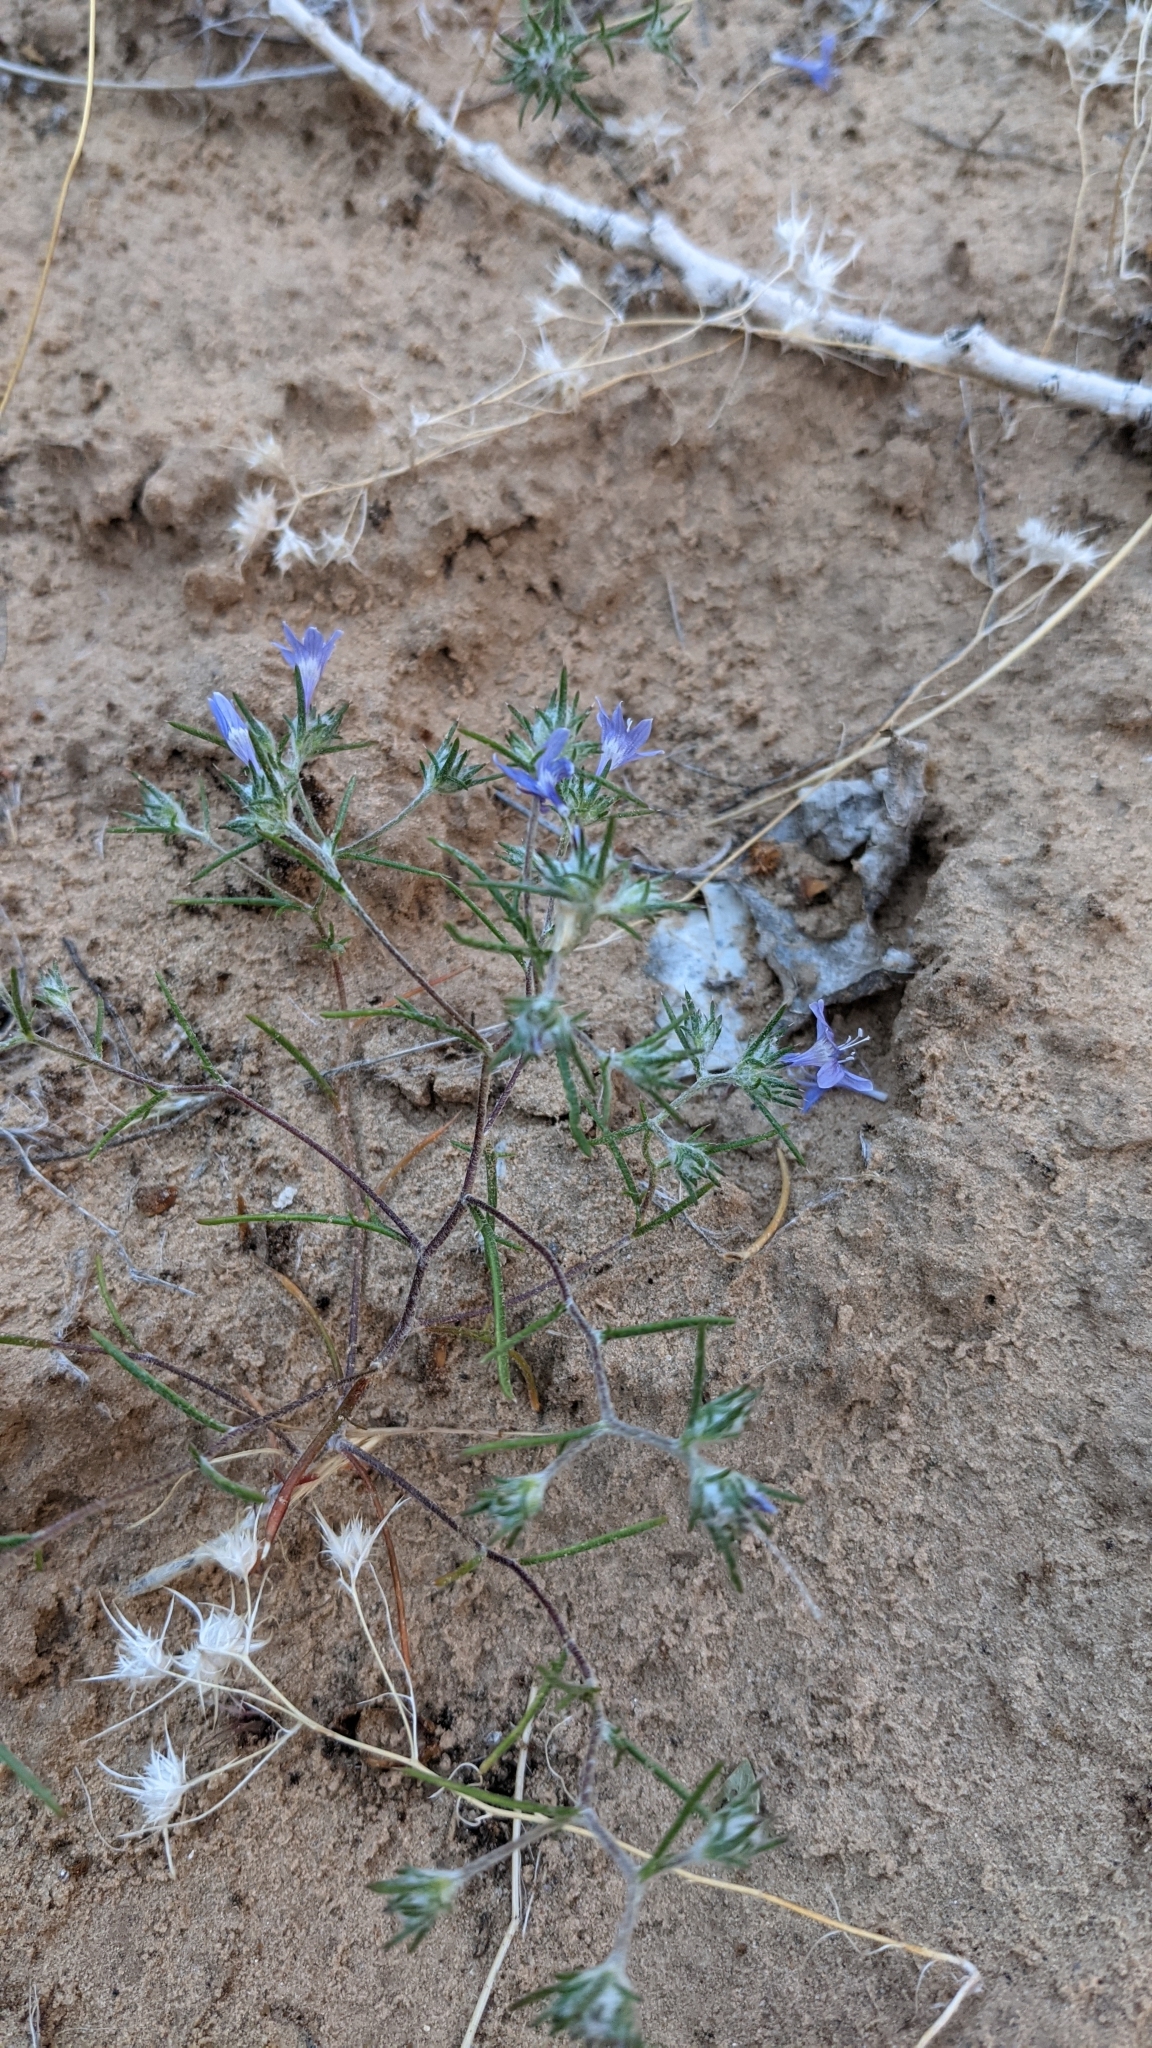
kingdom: Plantae
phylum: Tracheophyta
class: Magnoliopsida
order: Ericales
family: Polemoniaceae
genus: Eriastrum
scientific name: Eriastrum eremicum
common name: Desert eriastrum
